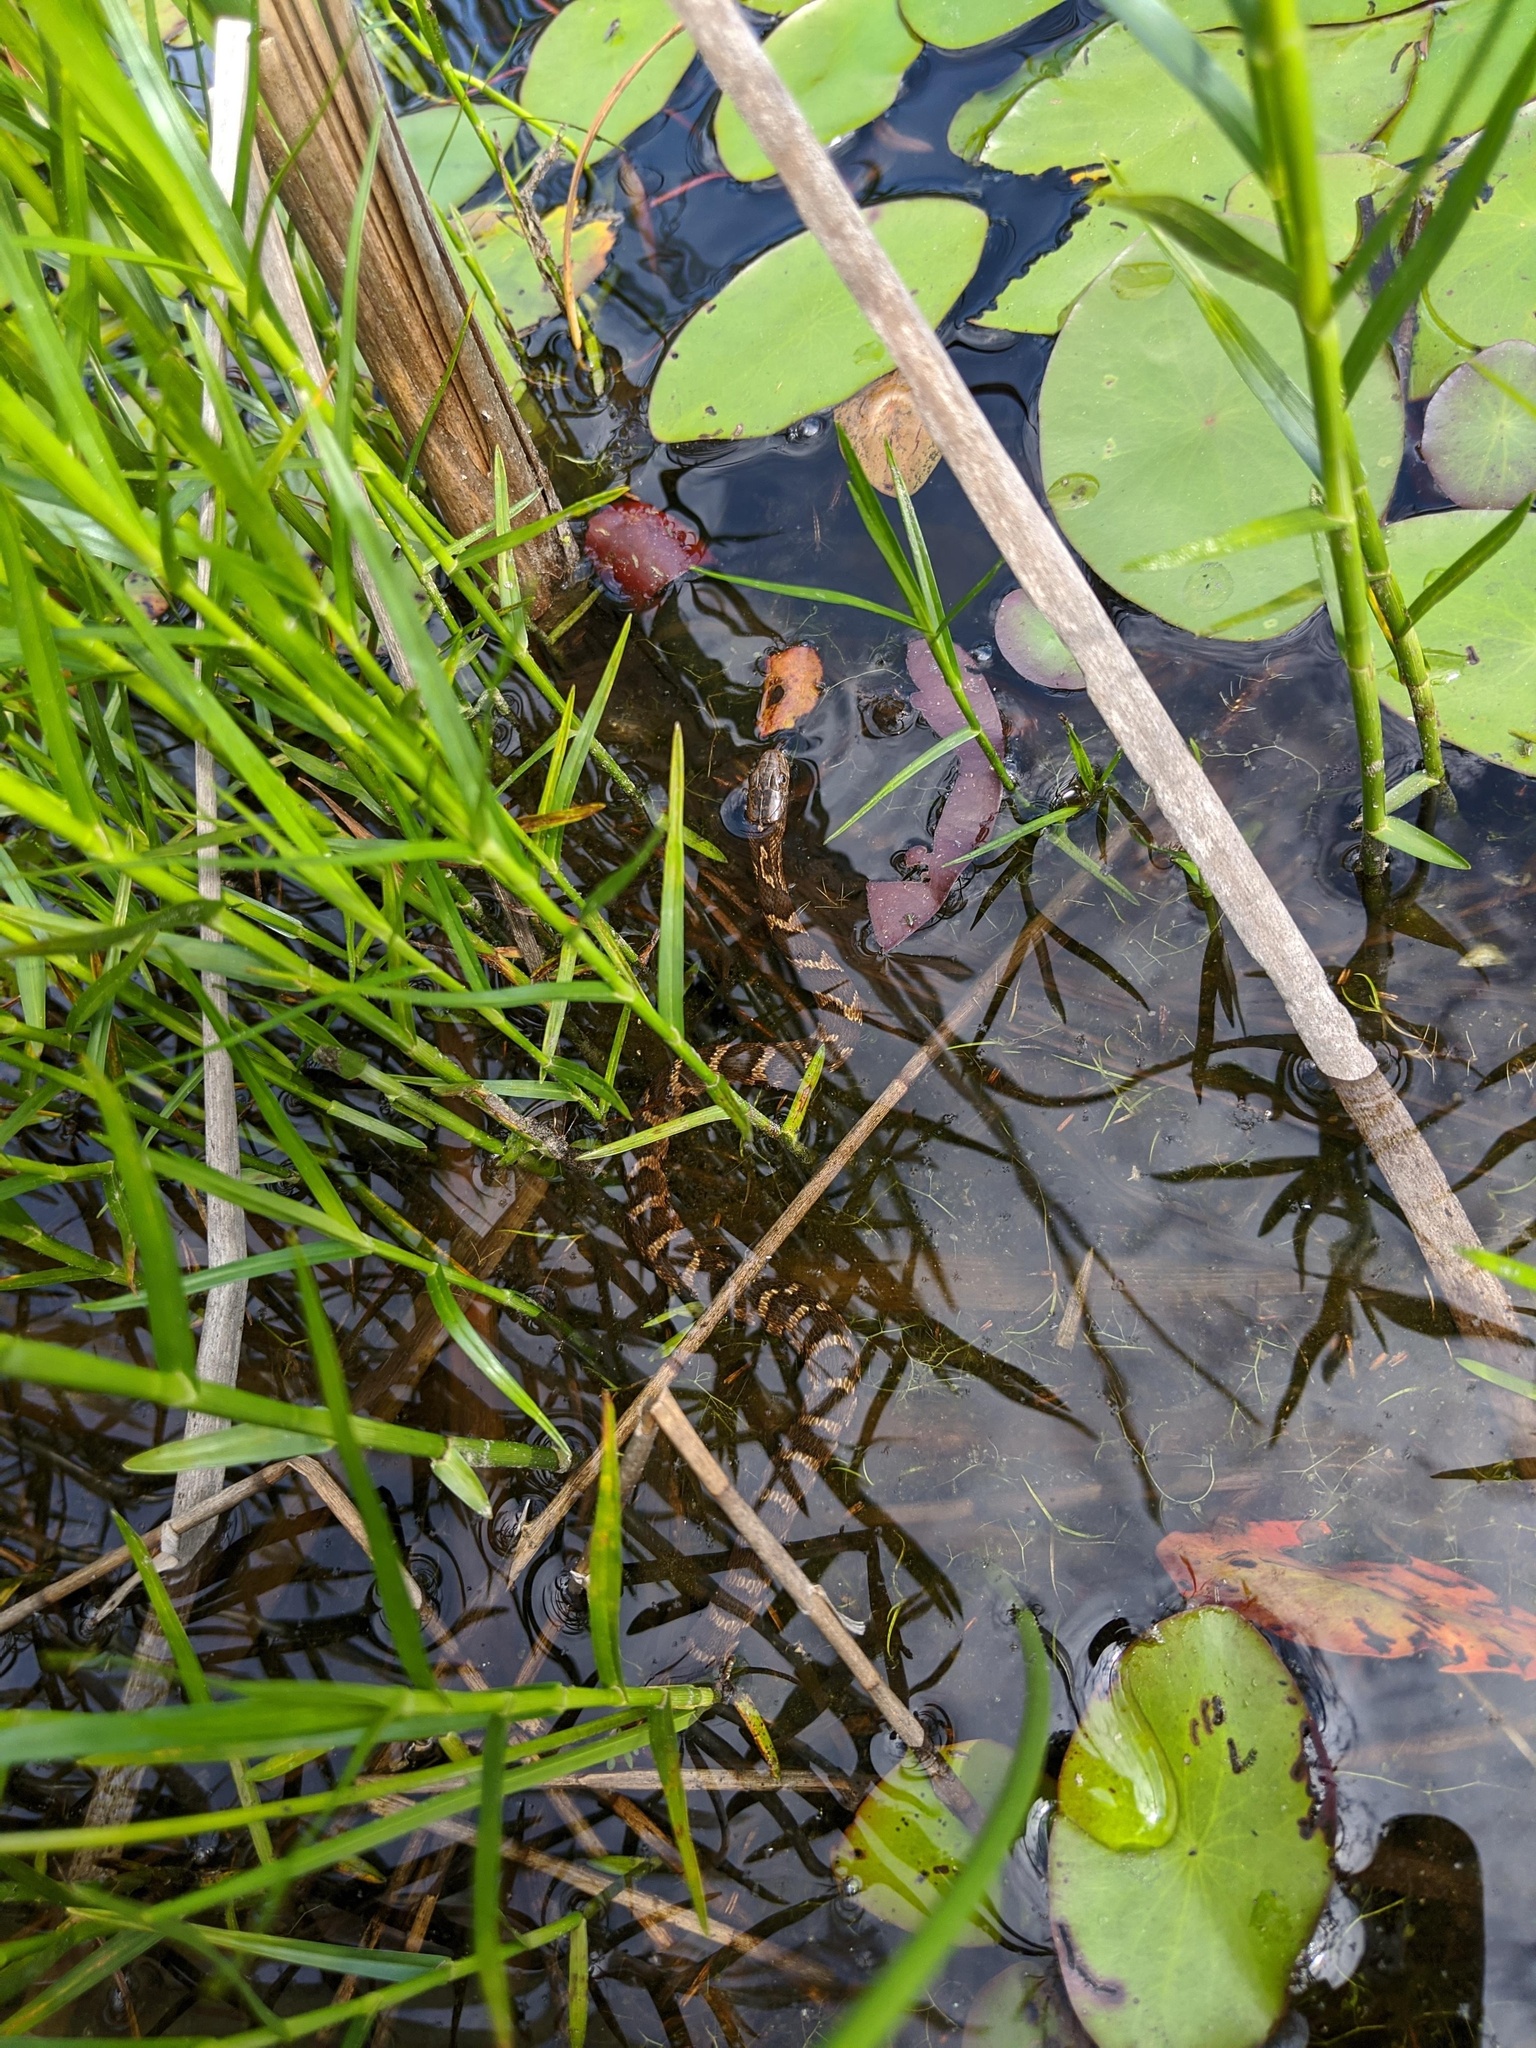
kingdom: Animalia
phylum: Chordata
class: Squamata
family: Colubridae
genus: Nerodia
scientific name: Nerodia sipedon
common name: Northern water snake
